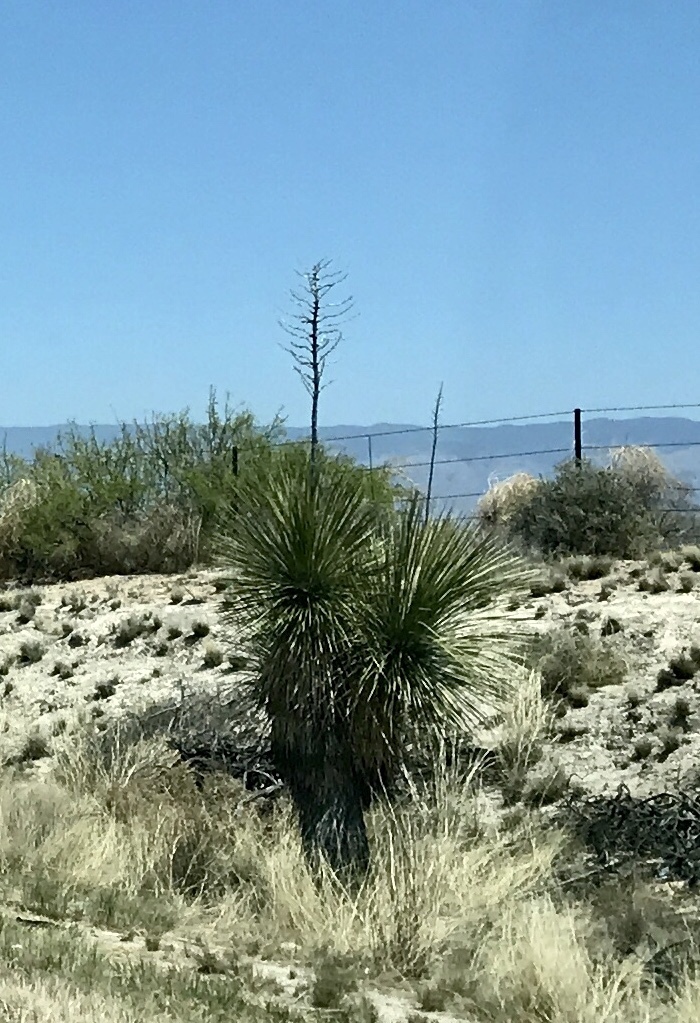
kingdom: Plantae
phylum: Tracheophyta
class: Liliopsida
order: Asparagales
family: Asparagaceae
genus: Yucca
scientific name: Yucca elata
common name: Palmella
